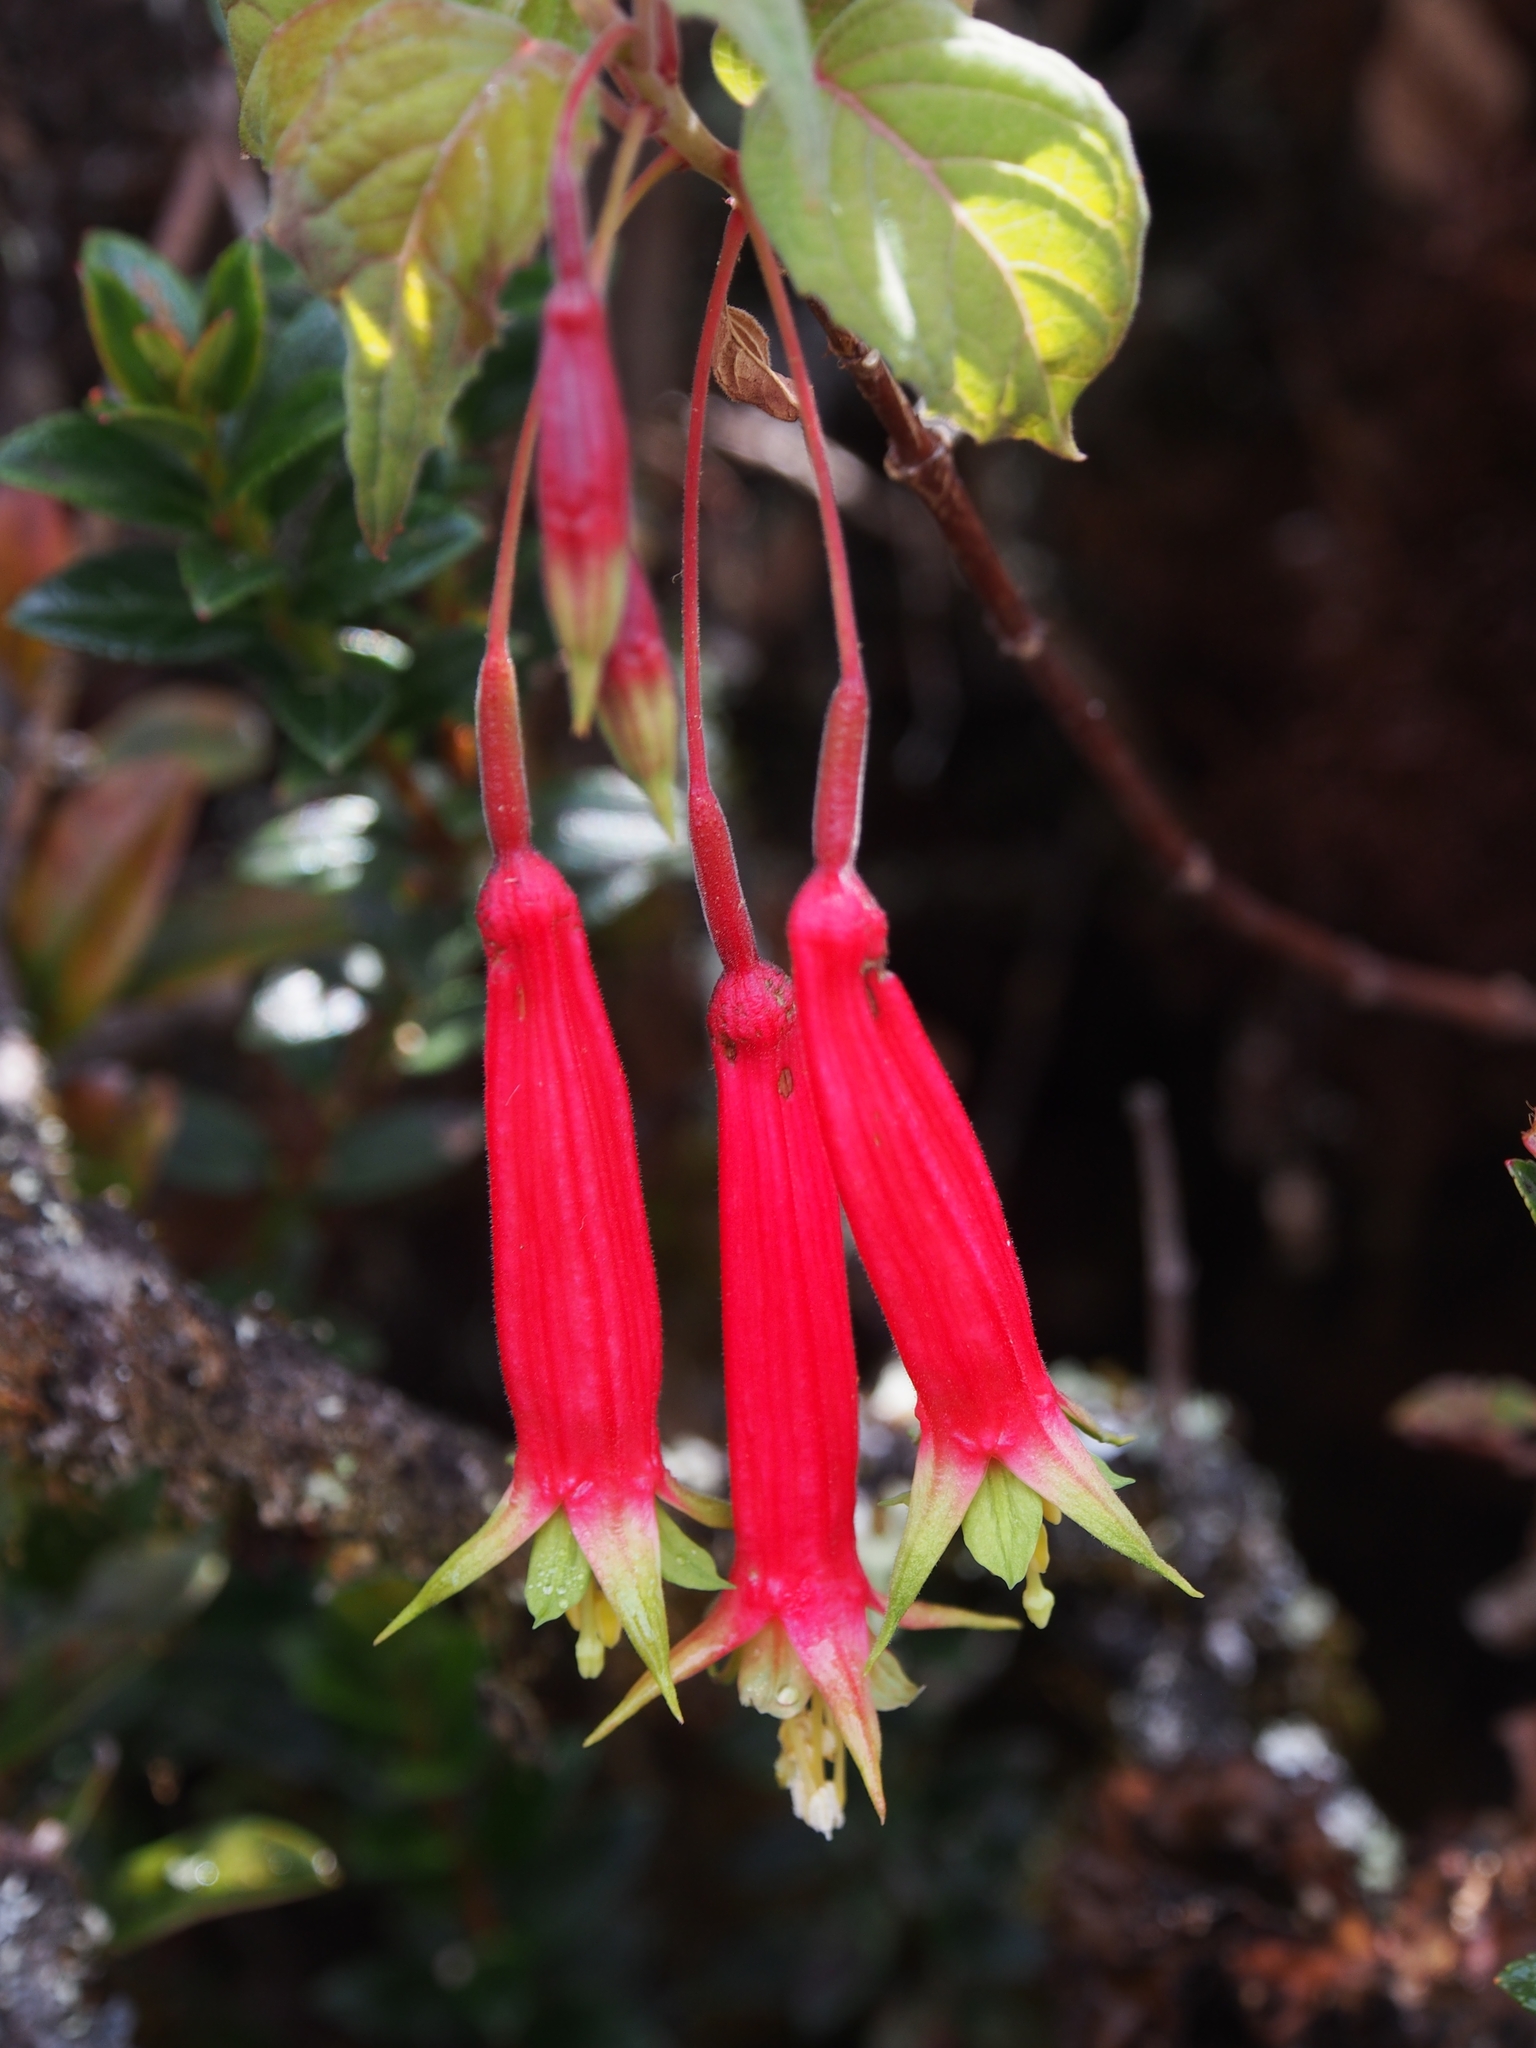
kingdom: Plantae
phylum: Tracheophyta
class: Magnoliopsida
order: Myrtales
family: Onagraceae
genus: Fuchsia
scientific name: Fuchsia splendens
